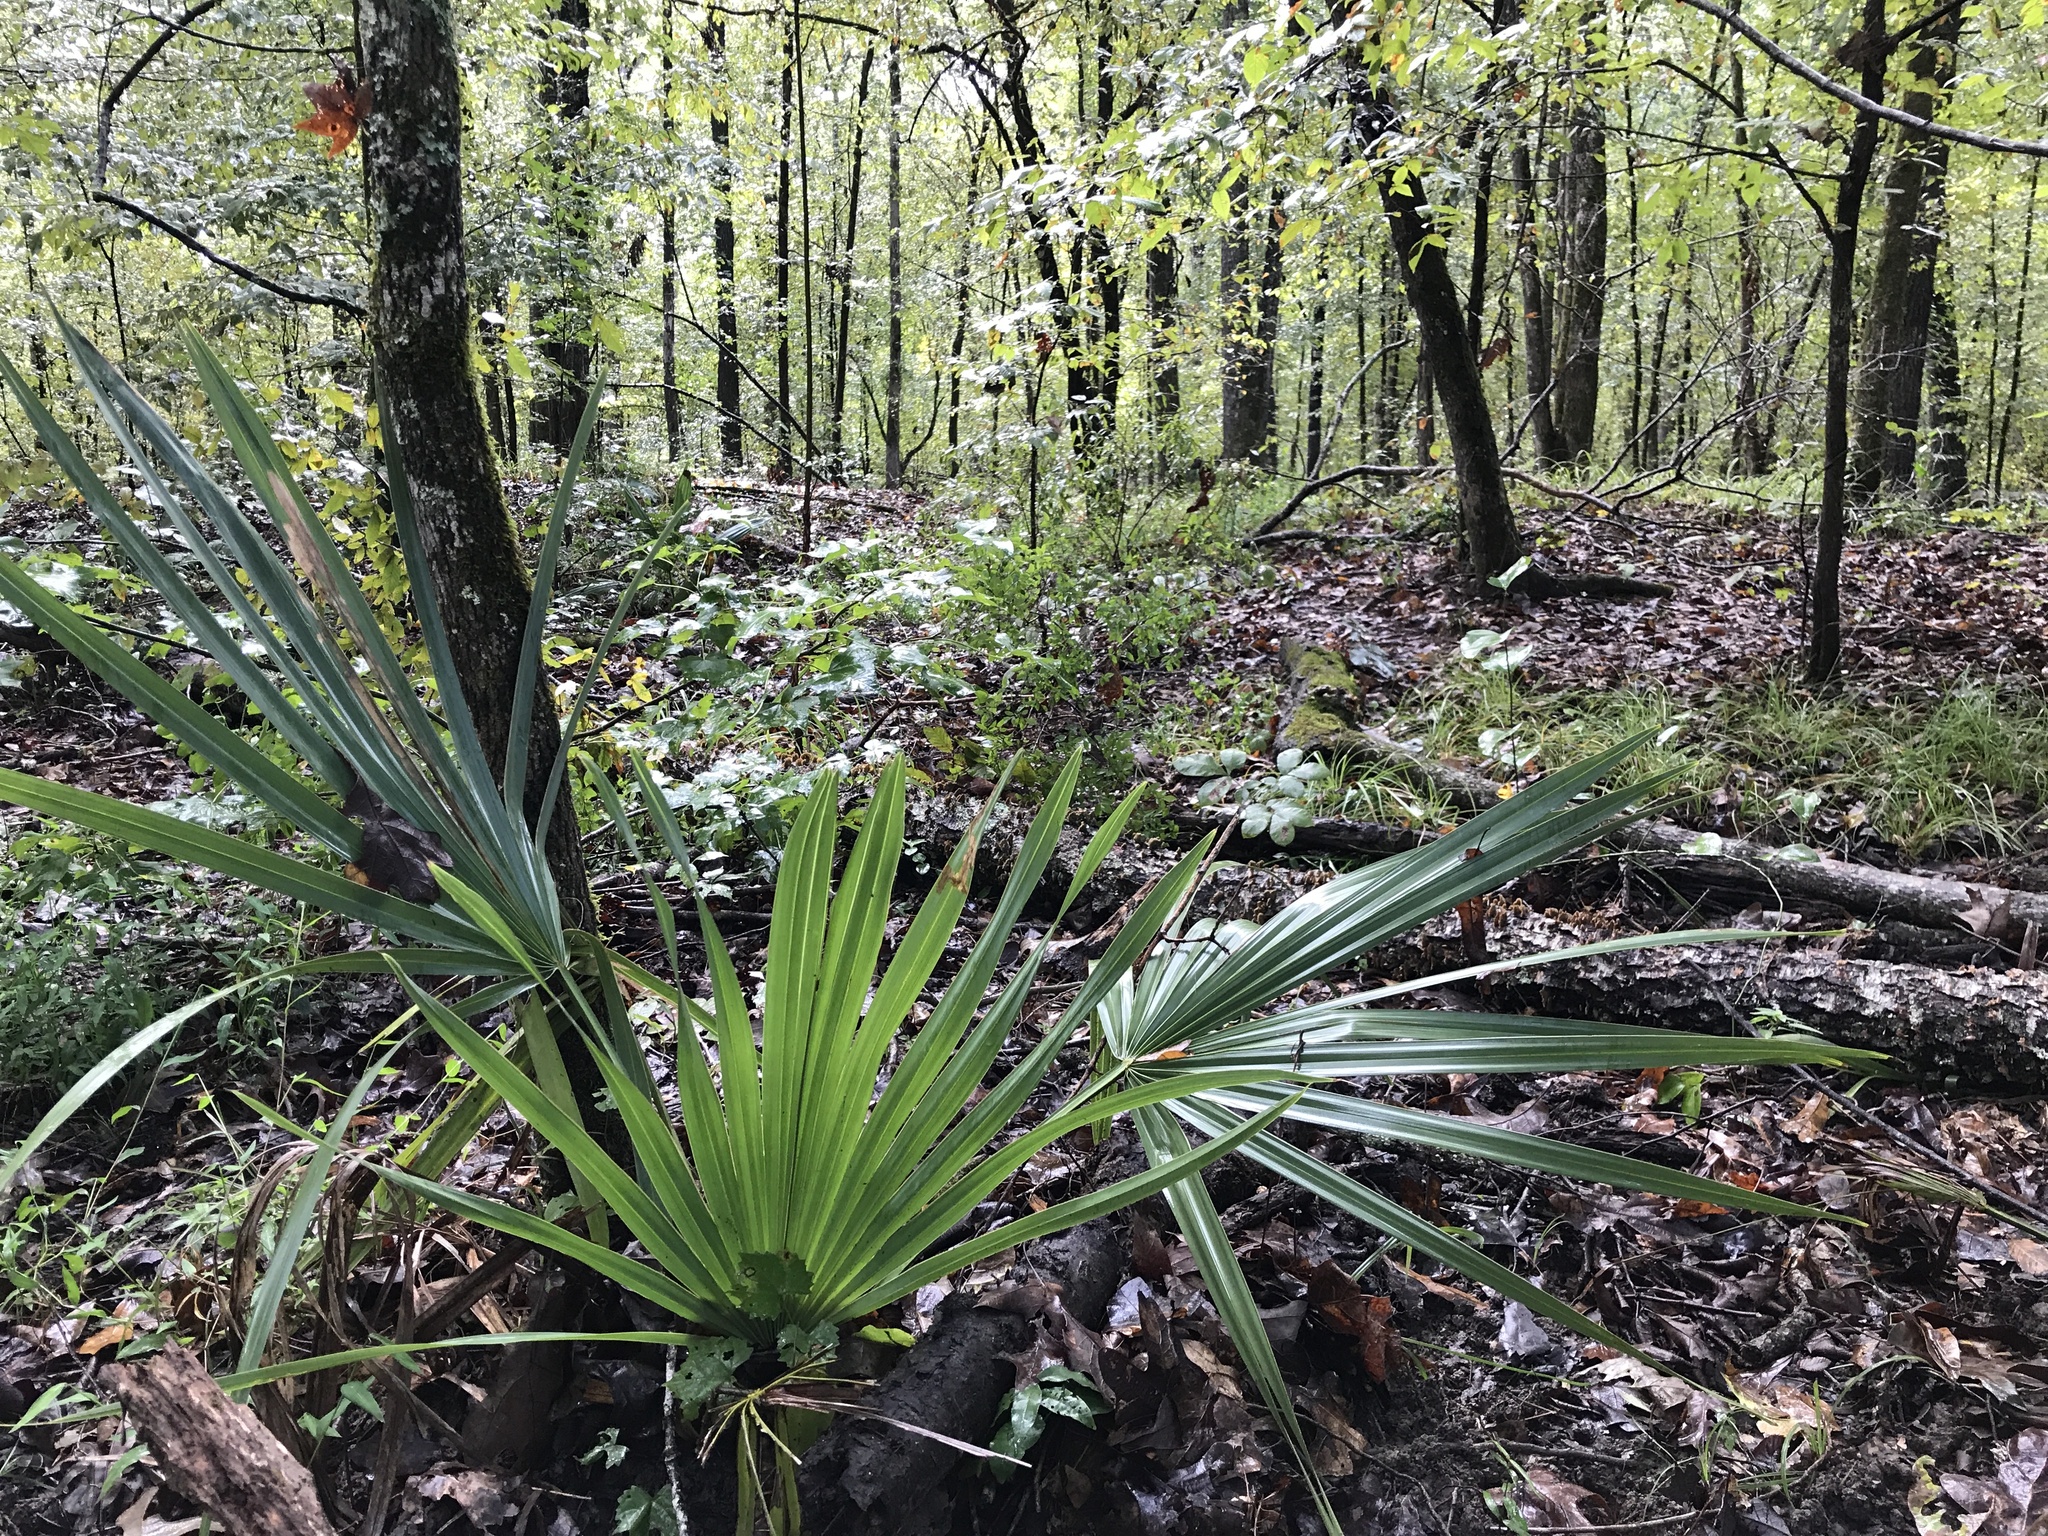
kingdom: Plantae
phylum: Tracheophyta
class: Liliopsida
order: Arecales
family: Arecaceae
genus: Sabal
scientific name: Sabal minor
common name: Dwarf palmetto
